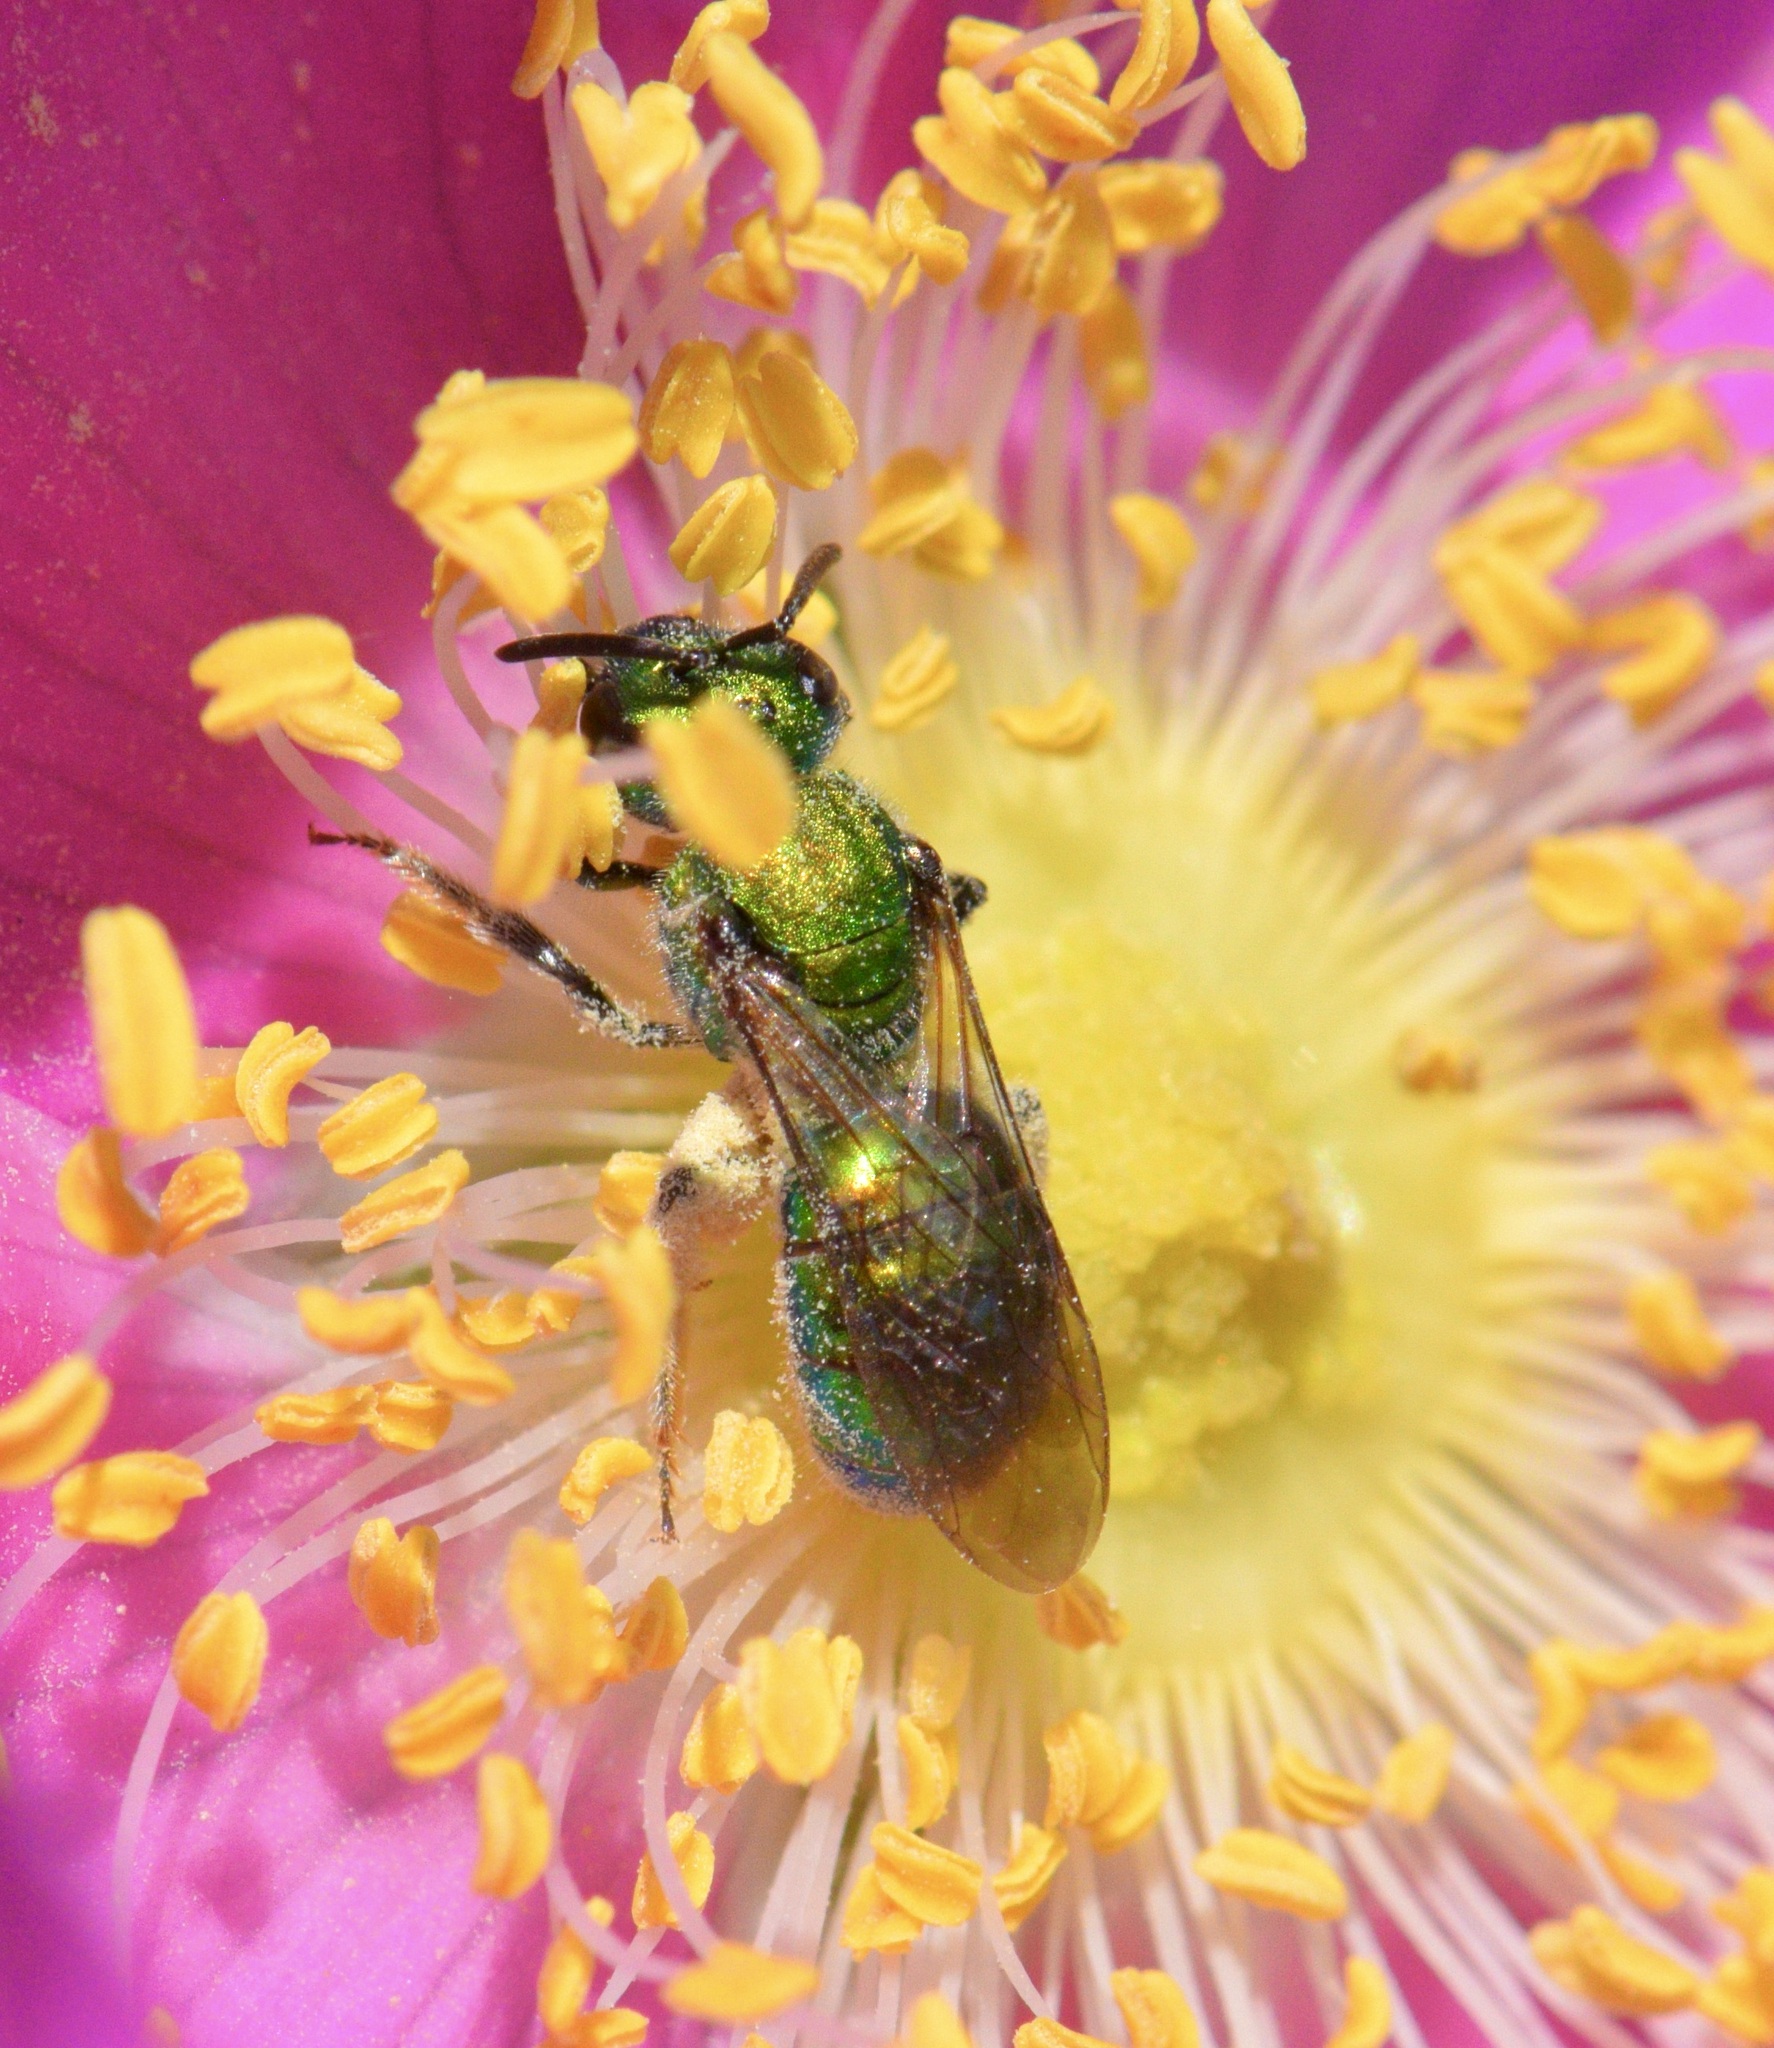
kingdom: Animalia
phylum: Arthropoda
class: Insecta
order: Hymenoptera
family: Halictidae
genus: Augochlora
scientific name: Augochlora pura
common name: Pure green sweat bee
